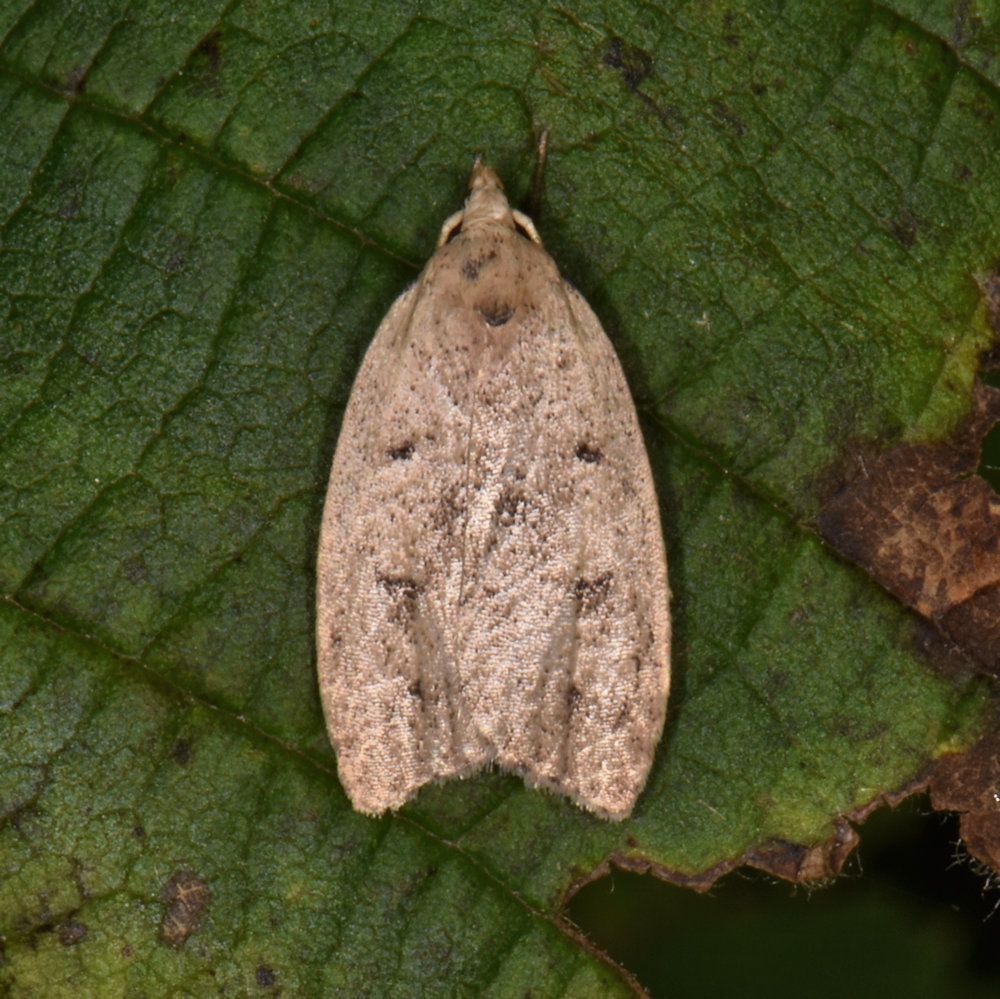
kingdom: Animalia
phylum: Arthropoda
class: Insecta
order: Lepidoptera
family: Peleopodidae
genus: Machimia
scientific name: Machimia tentoriferella
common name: Gold-striped leaftier moth
